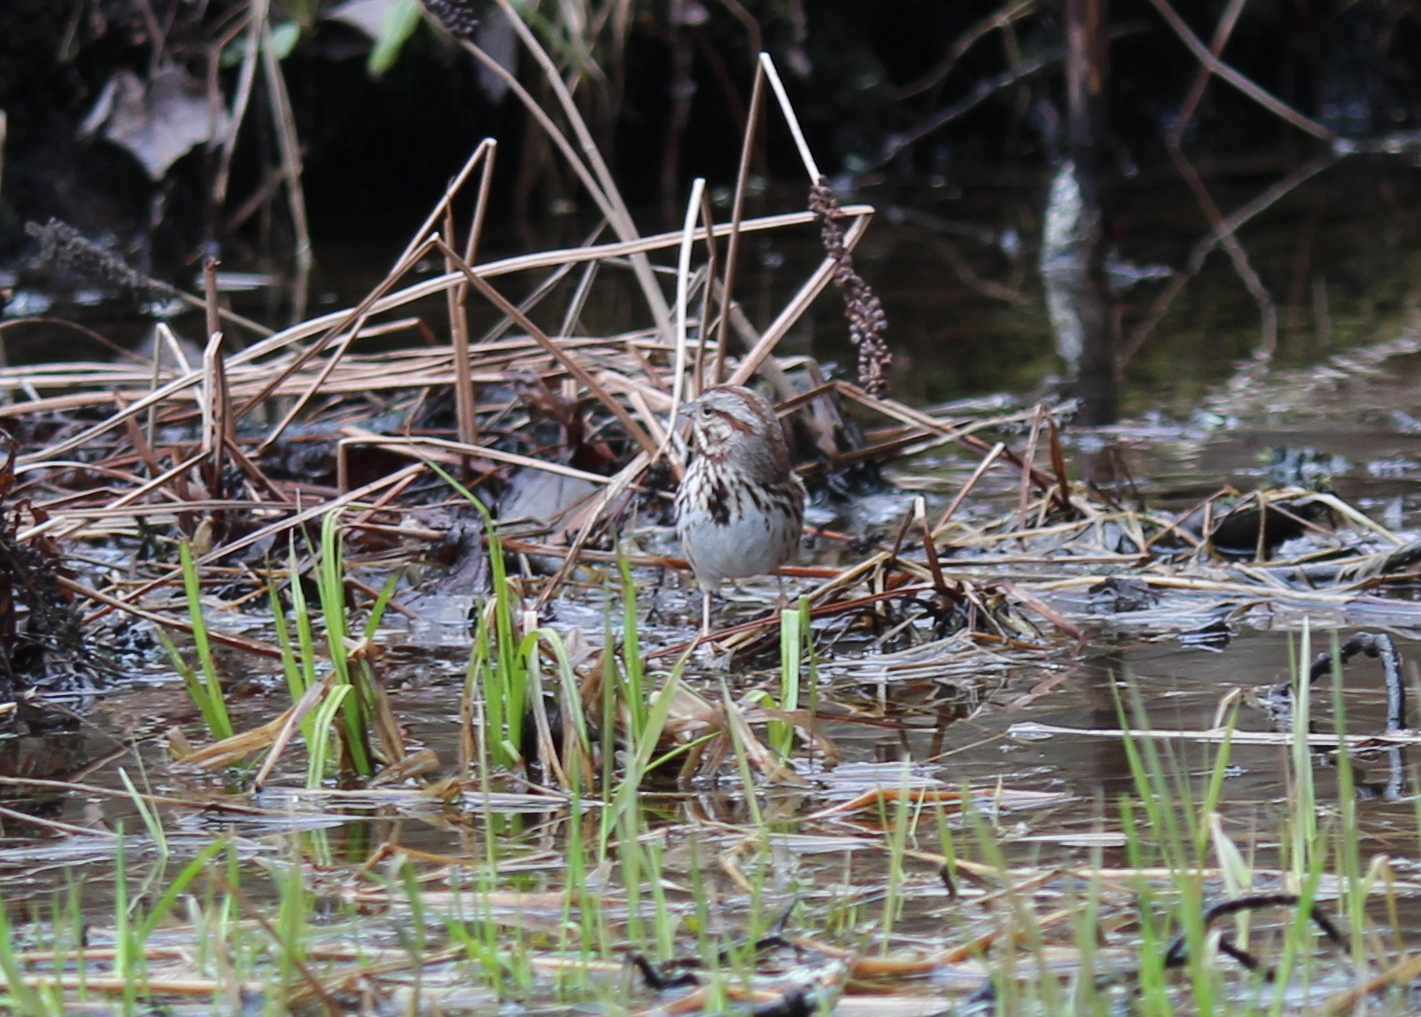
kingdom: Animalia
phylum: Chordata
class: Aves
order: Passeriformes
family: Passerellidae
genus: Melospiza
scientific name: Melospiza melodia
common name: Song sparrow
